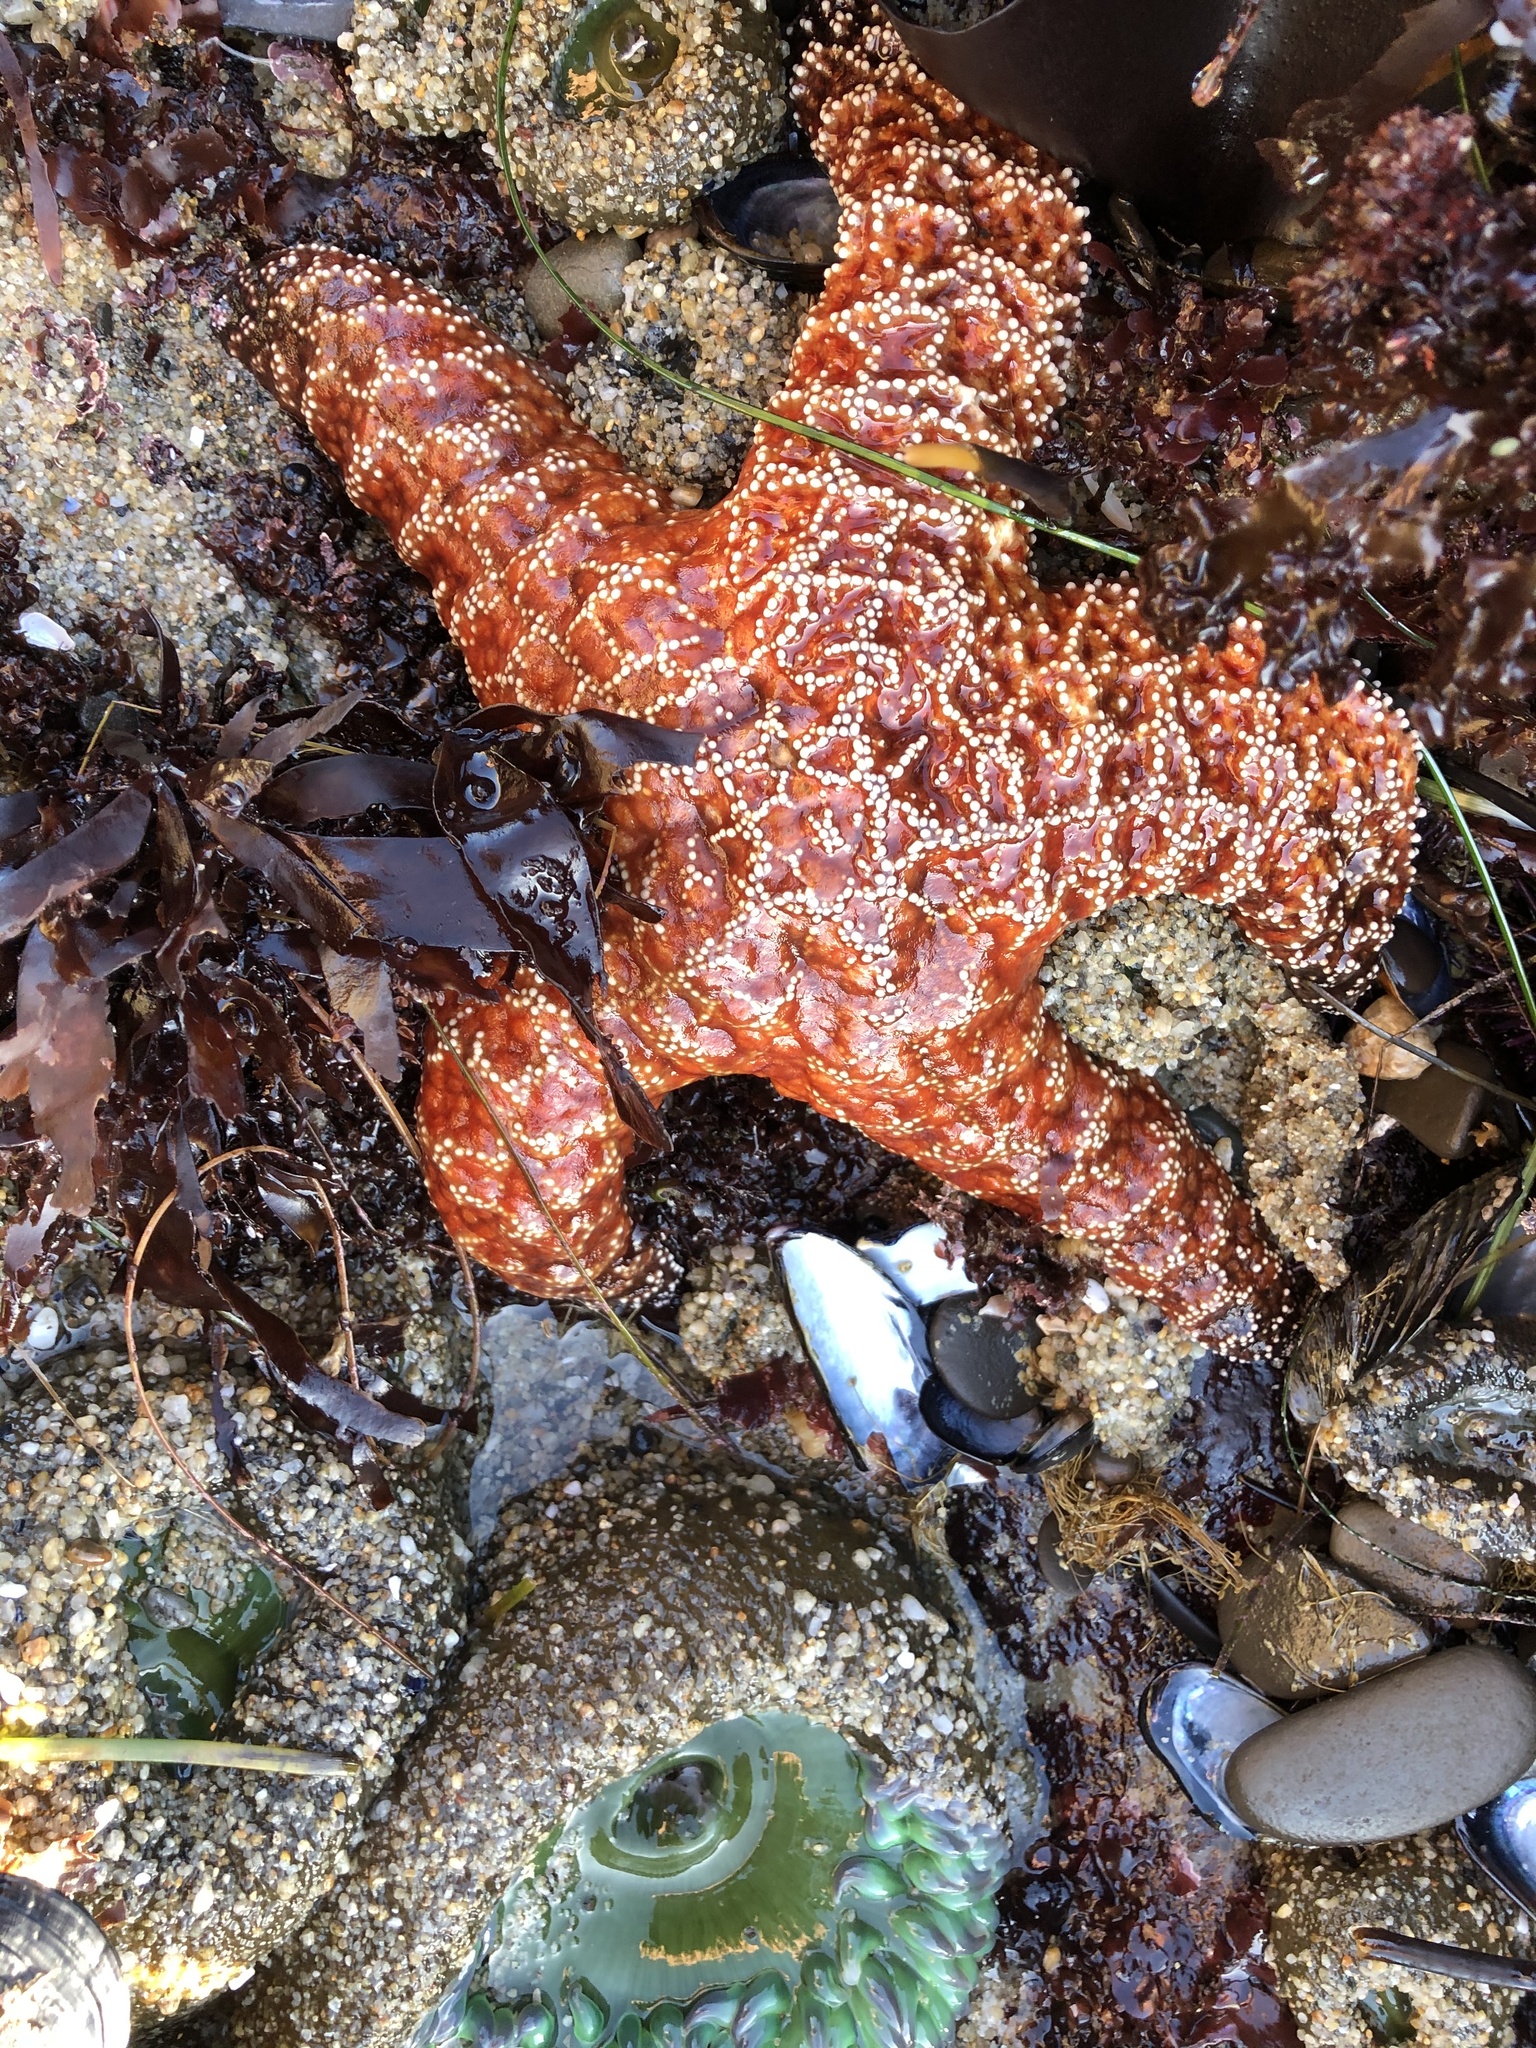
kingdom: Animalia
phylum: Echinodermata
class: Asteroidea
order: Forcipulatida
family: Asteriidae
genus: Pisaster
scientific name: Pisaster ochraceus
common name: Ochre stars
